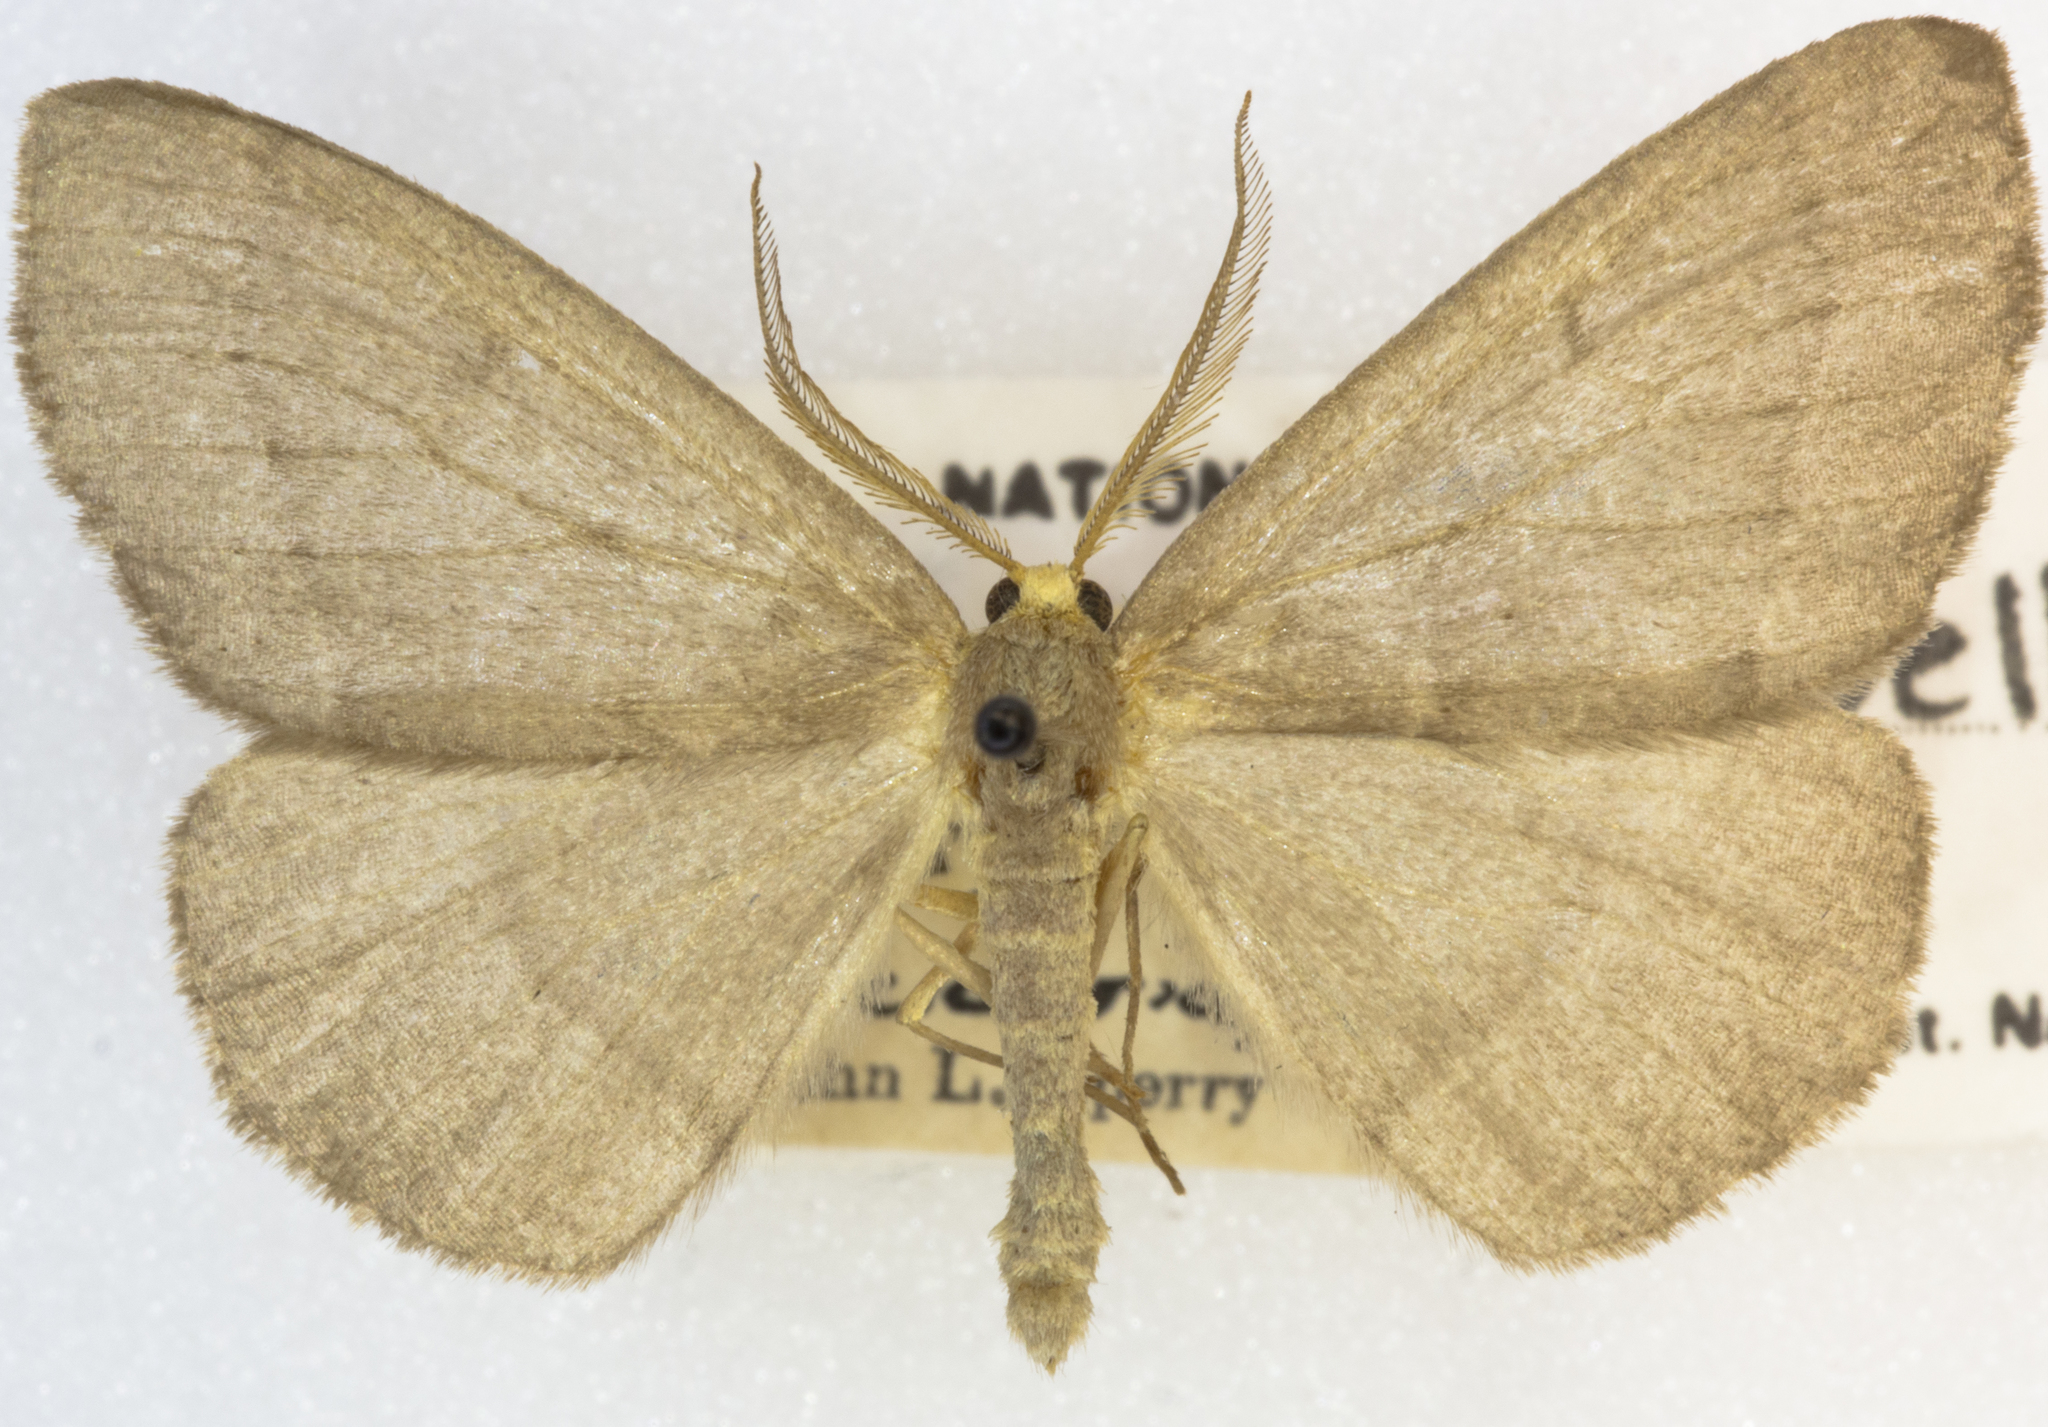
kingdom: Animalia
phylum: Arthropoda
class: Insecta
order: Lepidoptera
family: Geometridae
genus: Lambdina
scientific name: Lambdina pellucidaria
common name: Eastern pinelooper
